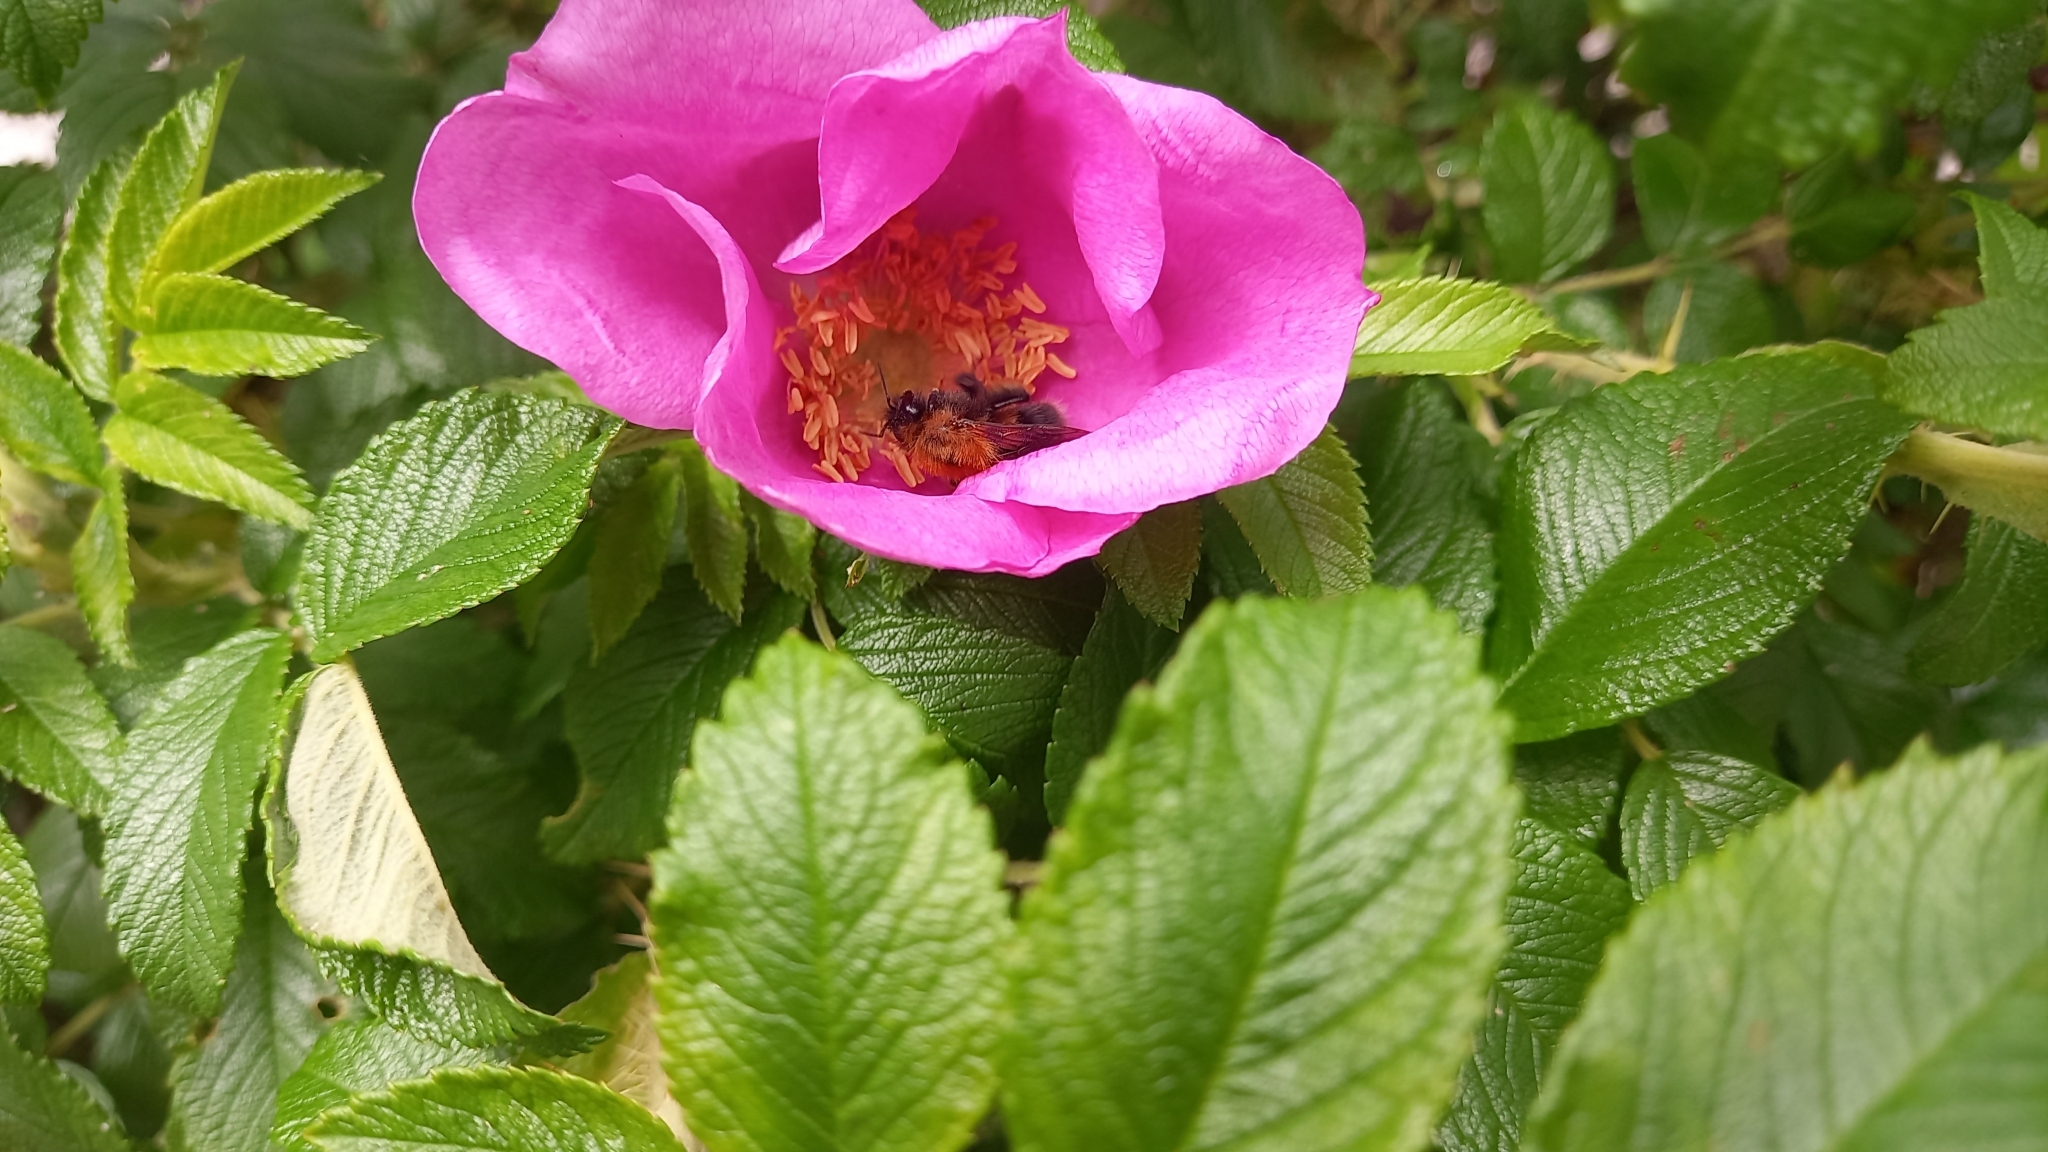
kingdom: Animalia
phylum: Arthropoda
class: Insecta
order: Hymenoptera
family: Apidae
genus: Bombus
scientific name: Bombus hypnorum
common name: New garden bumblebee
